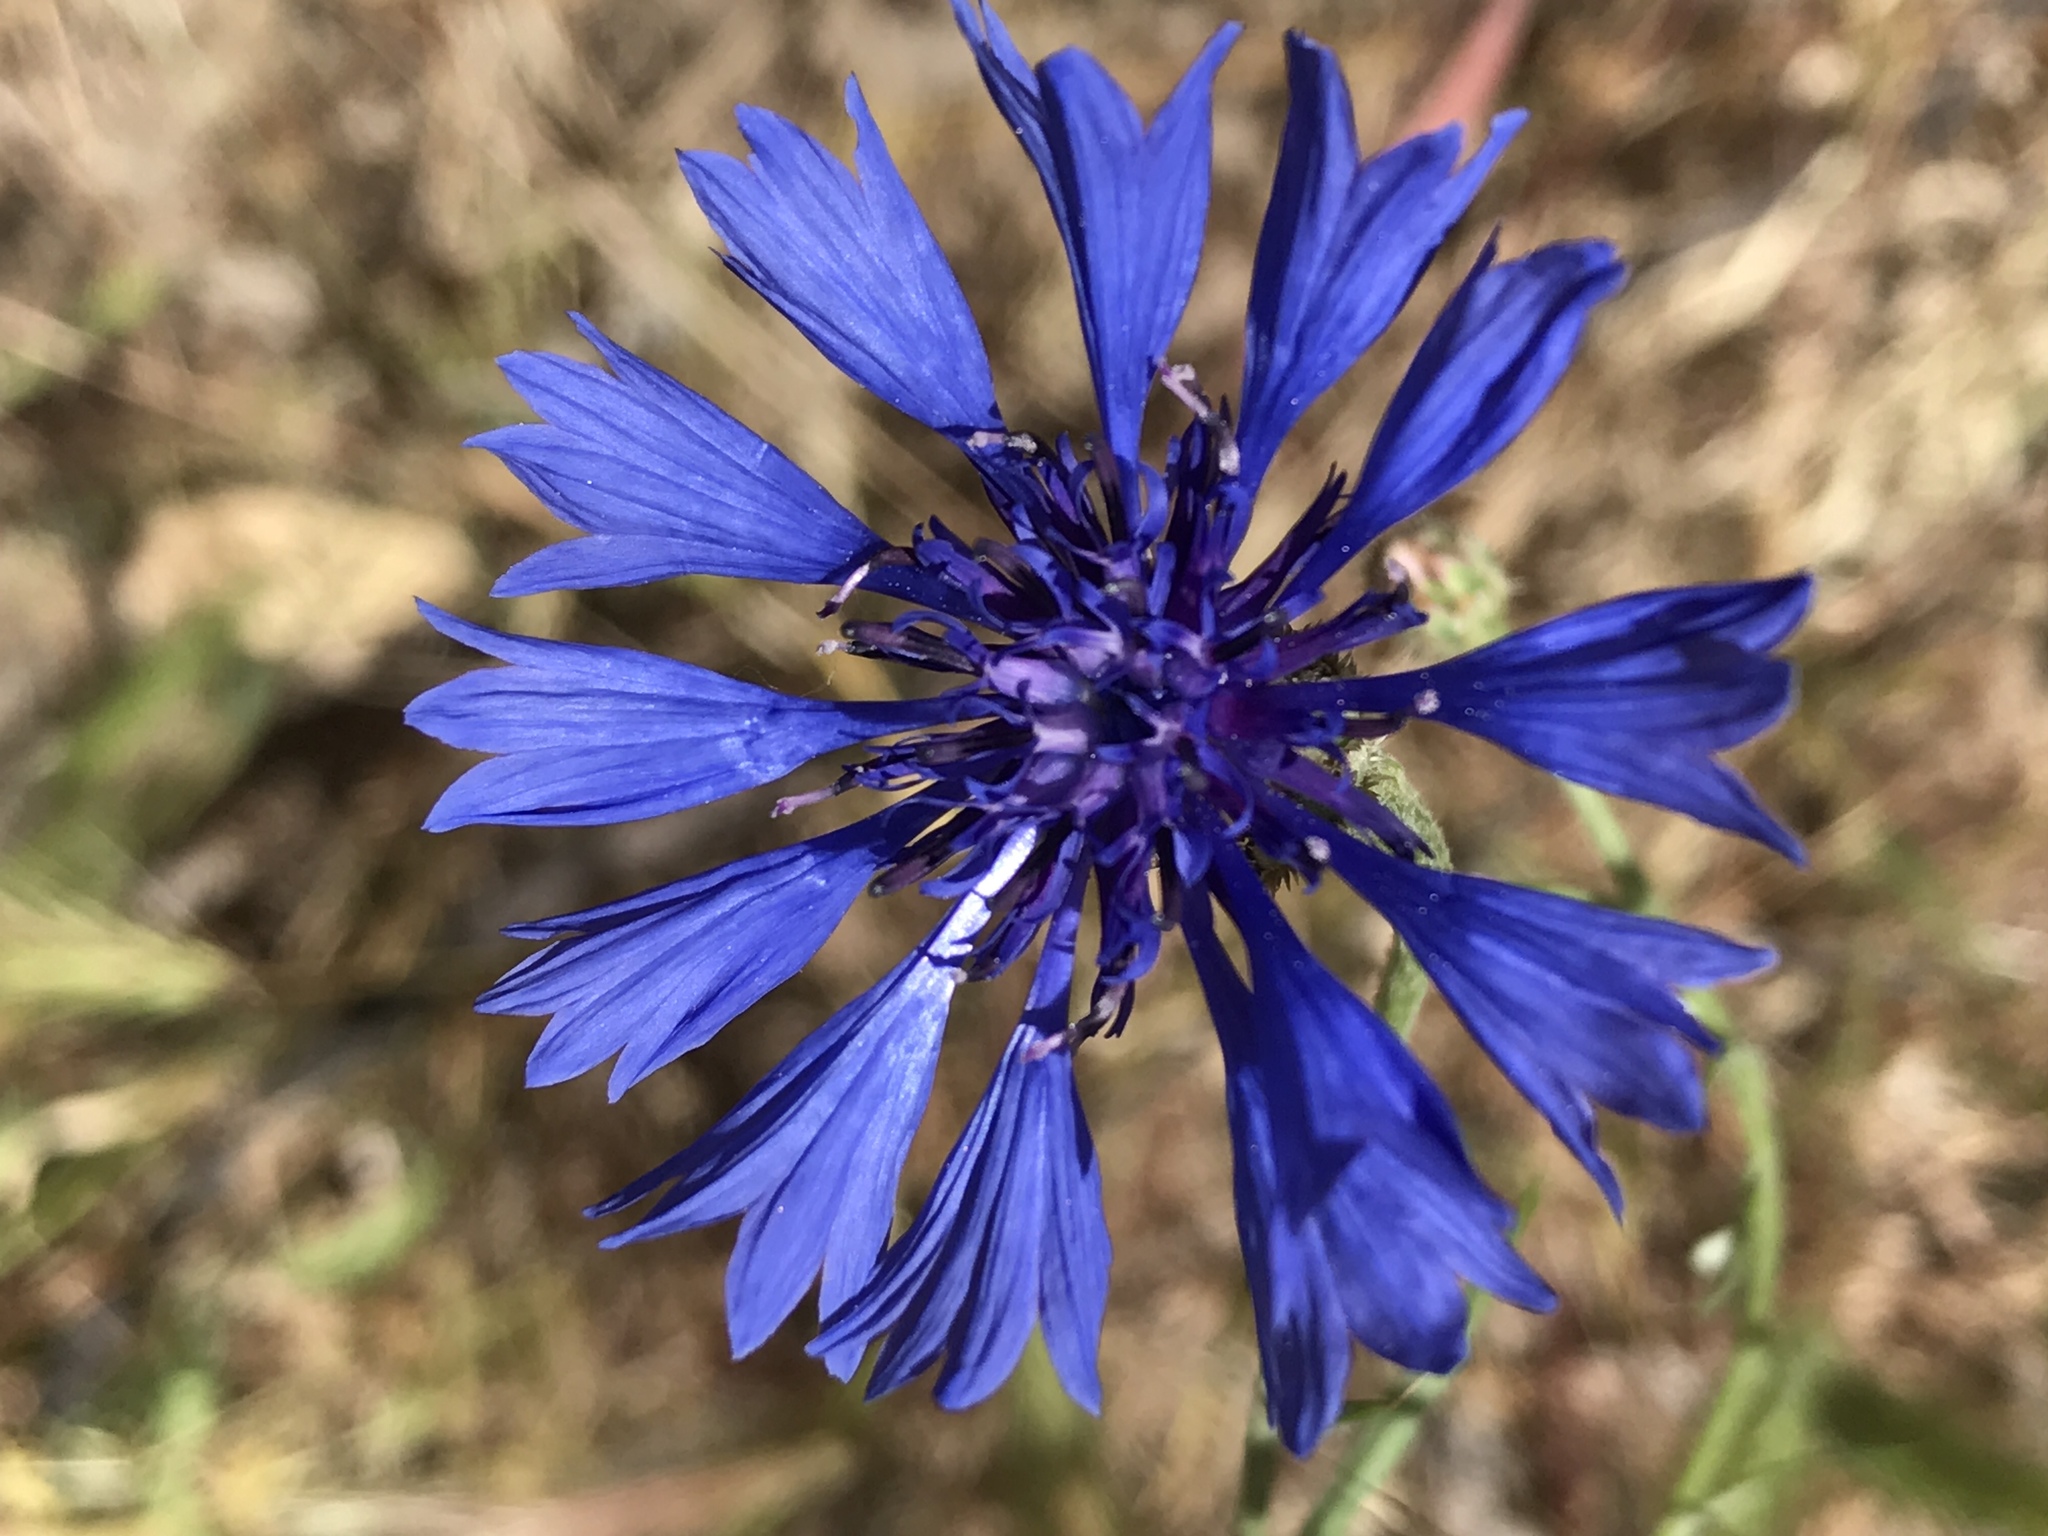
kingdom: Plantae
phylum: Tracheophyta
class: Magnoliopsida
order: Asterales
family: Asteraceae
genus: Centaurea
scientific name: Centaurea cyanus
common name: Cornflower
